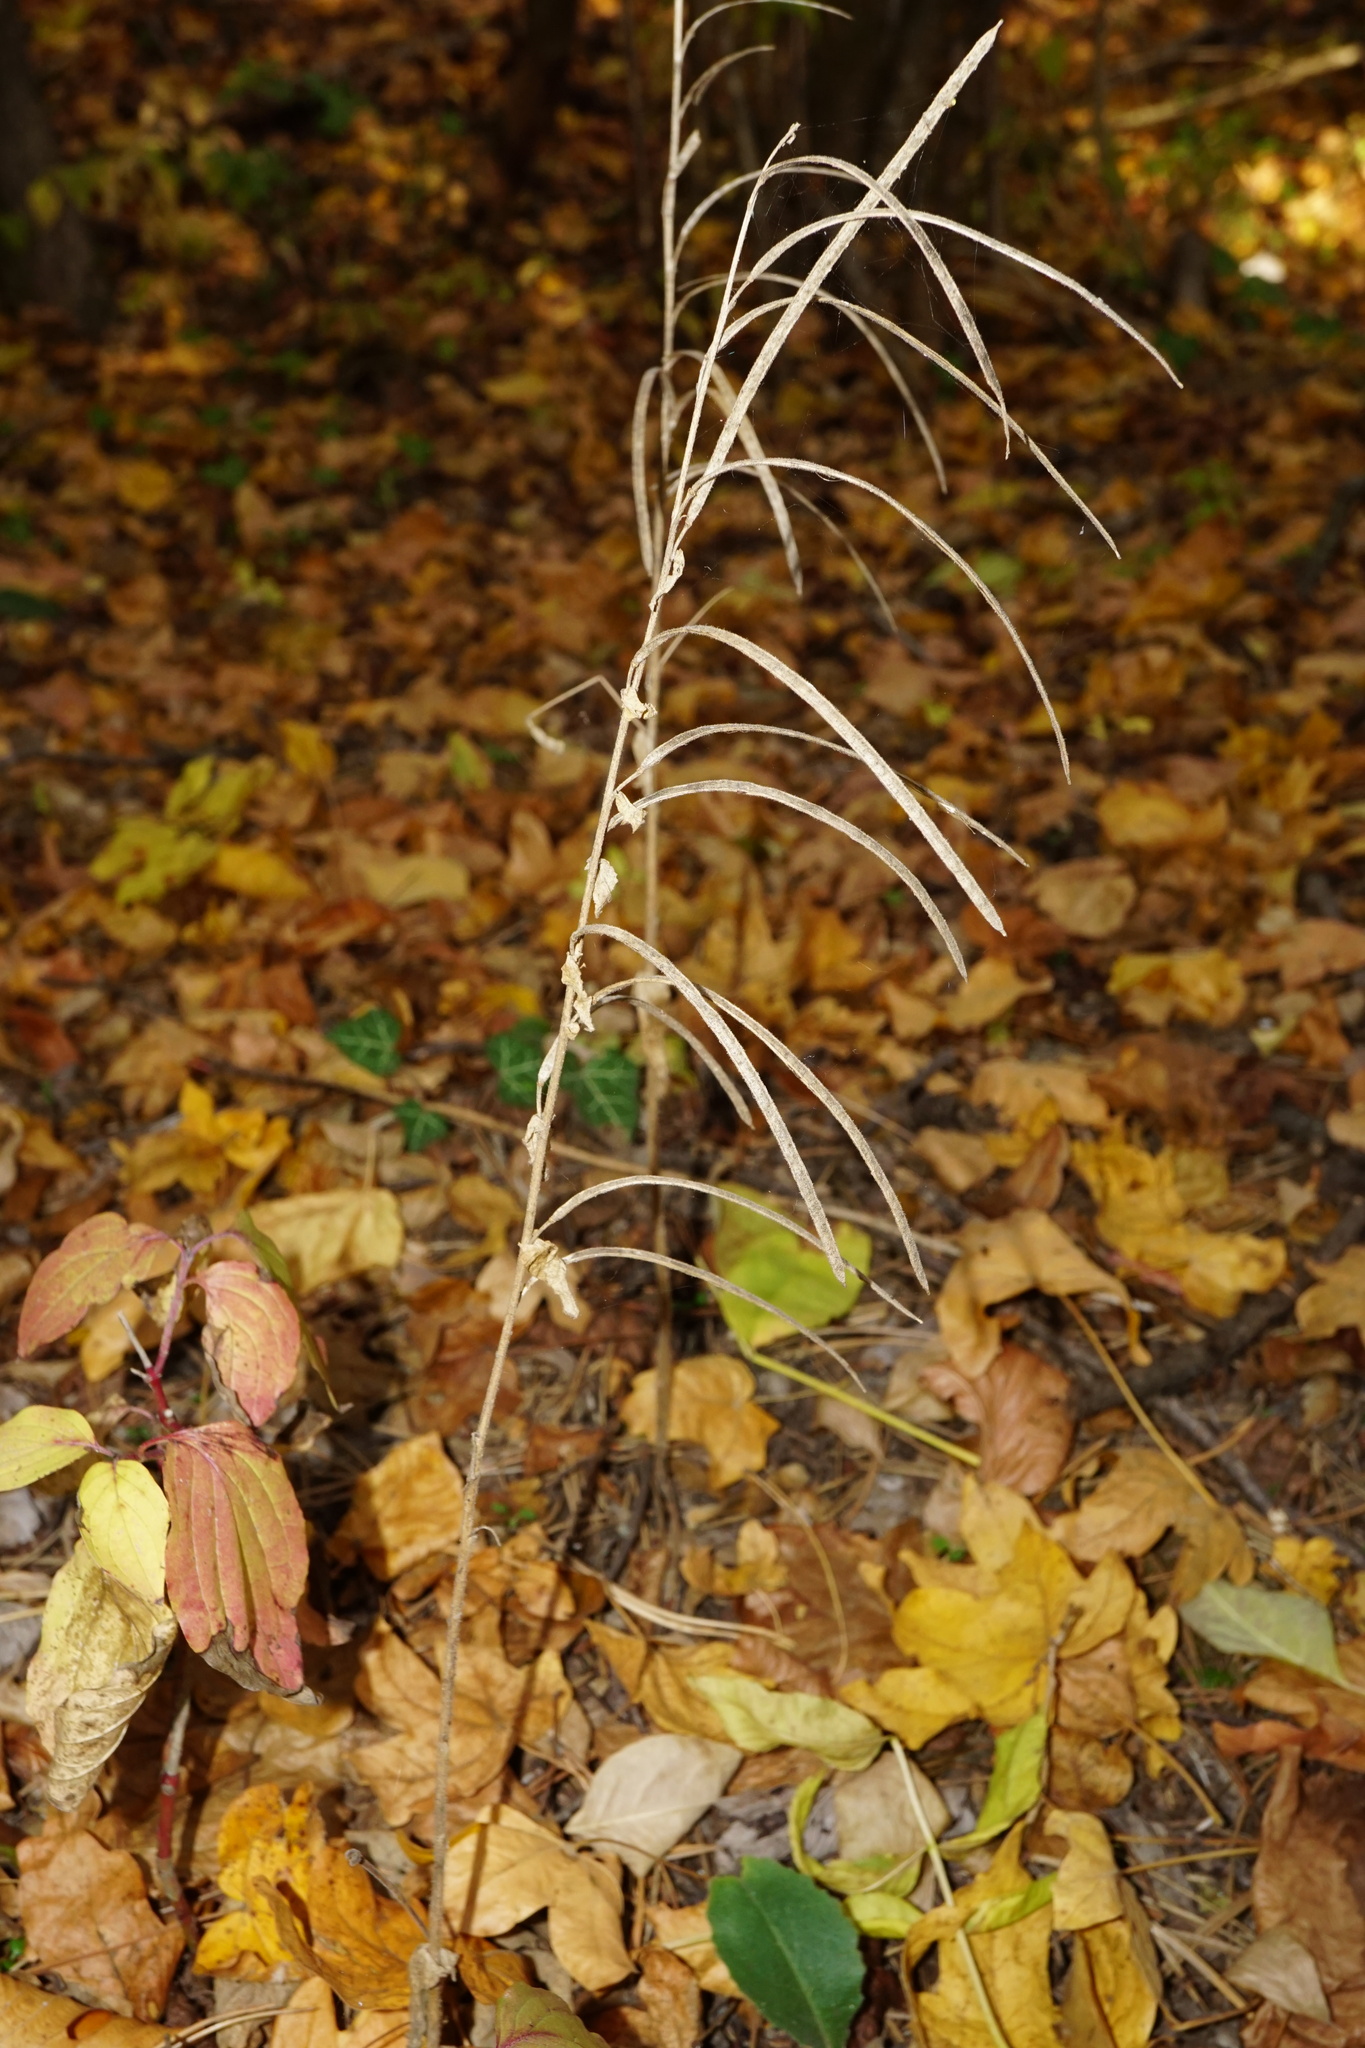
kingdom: Plantae
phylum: Tracheophyta
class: Magnoliopsida
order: Brassicales
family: Brassicaceae
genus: Pseudoturritis
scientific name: Pseudoturritis turrita
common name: Tower cress
